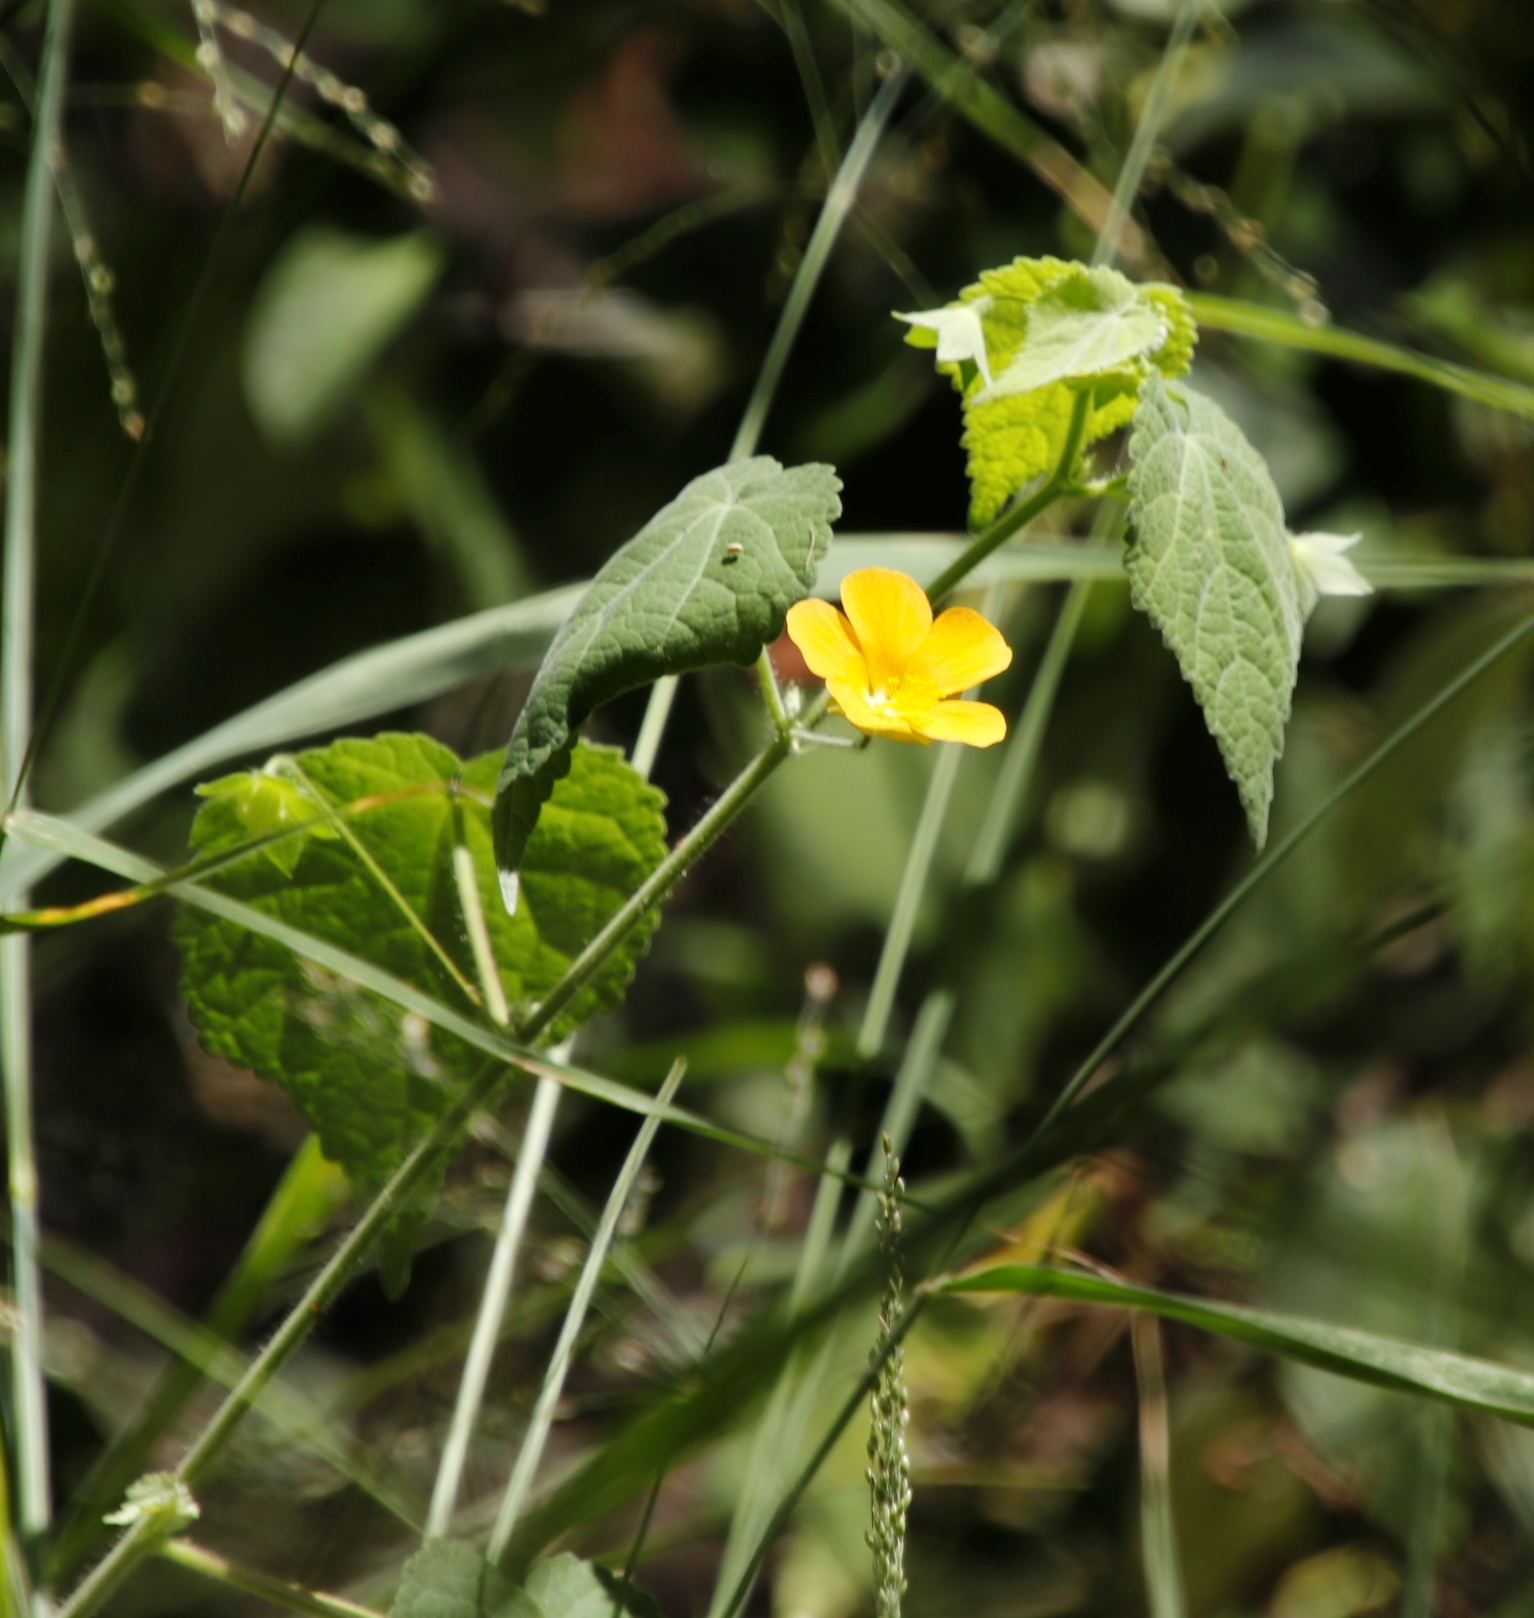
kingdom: Plantae
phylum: Tracheophyta
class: Magnoliopsida
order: Malvales
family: Malvaceae
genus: Pavonia
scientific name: Pavonia burchellii
